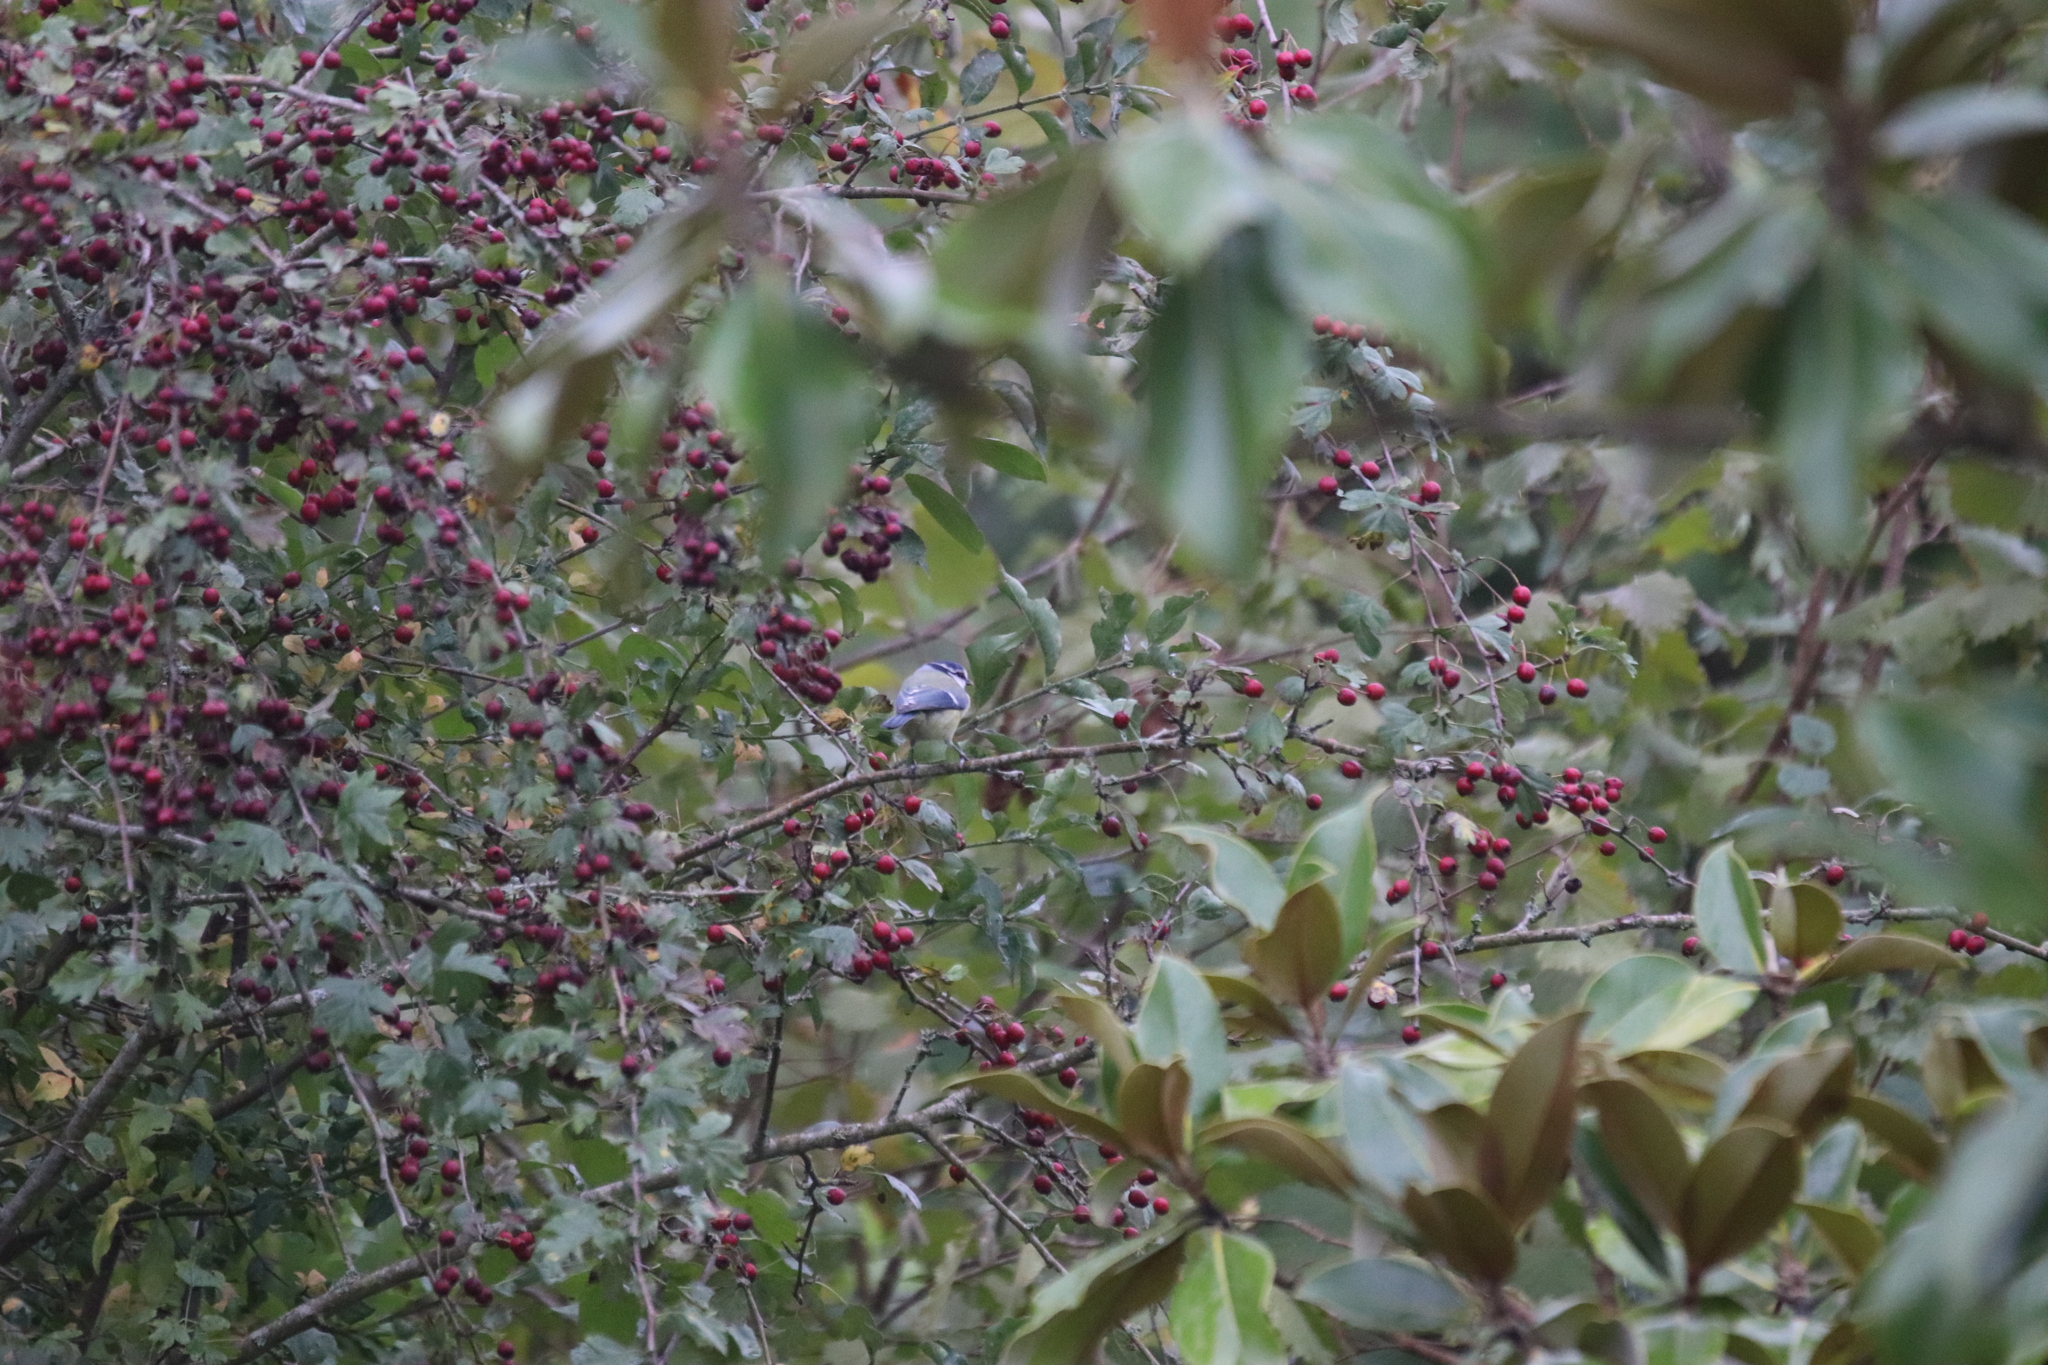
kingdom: Animalia
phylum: Chordata
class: Aves
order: Passeriformes
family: Paridae
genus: Cyanistes
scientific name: Cyanistes caeruleus
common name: Eurasian blue tit
